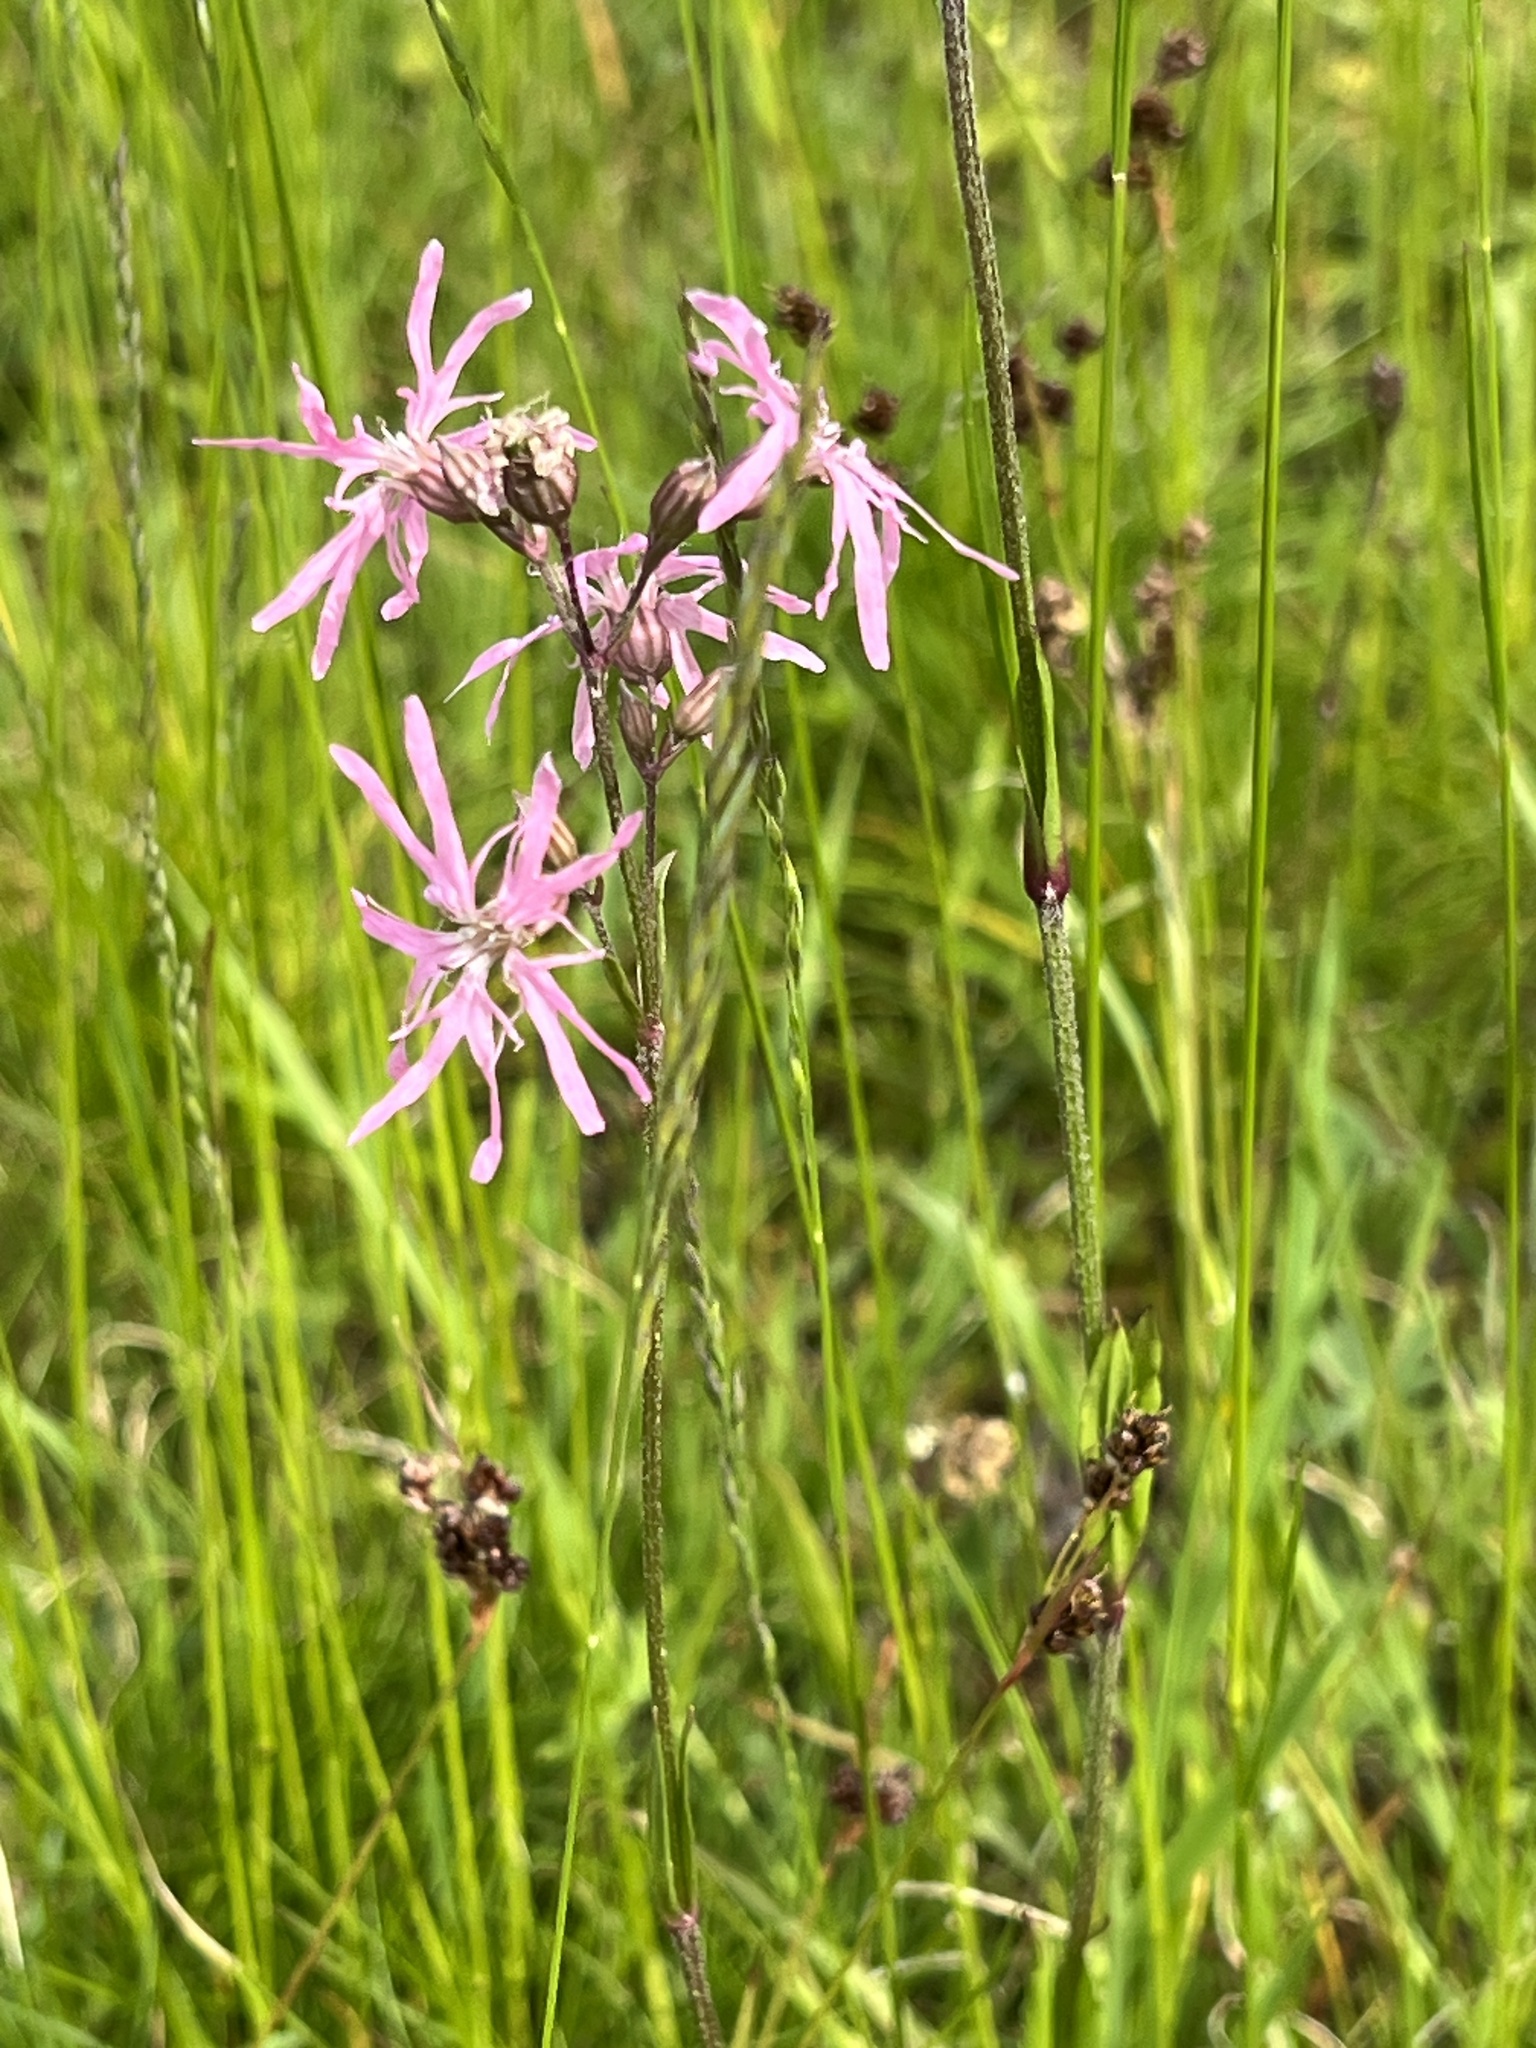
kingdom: Plantae
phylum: Tracheophyta
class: Magnoliopsida
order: Caryophyllales
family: Caryophyllaceae
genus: Silene
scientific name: Silene flos-cuculi
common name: Ragged-robin
